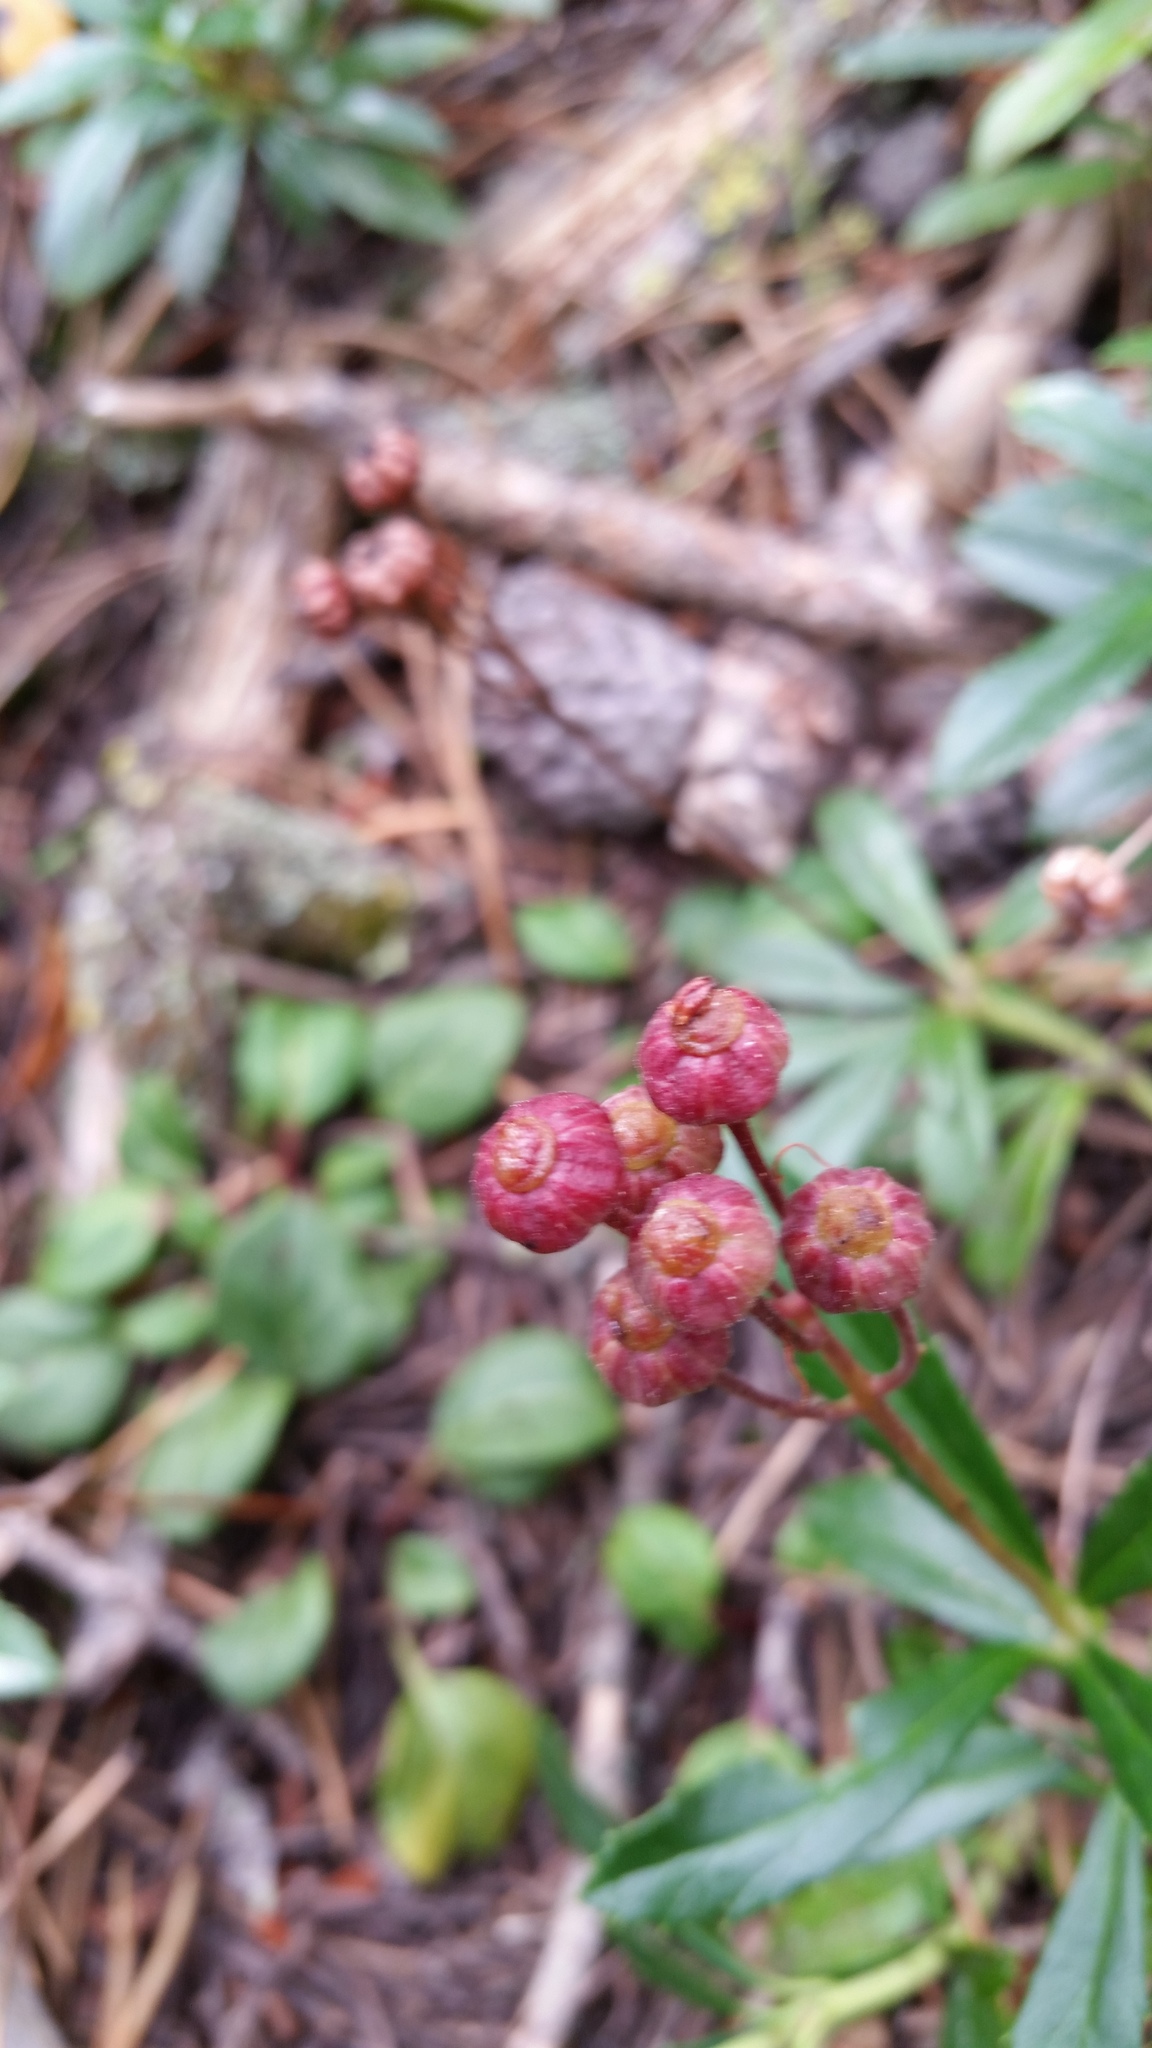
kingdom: Plantae
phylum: Tracheophyta
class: Magnoliopsida
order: Ericales
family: Ericaceae
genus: Chimaphila
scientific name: Chimaphila umbellata
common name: Pipsissewa
